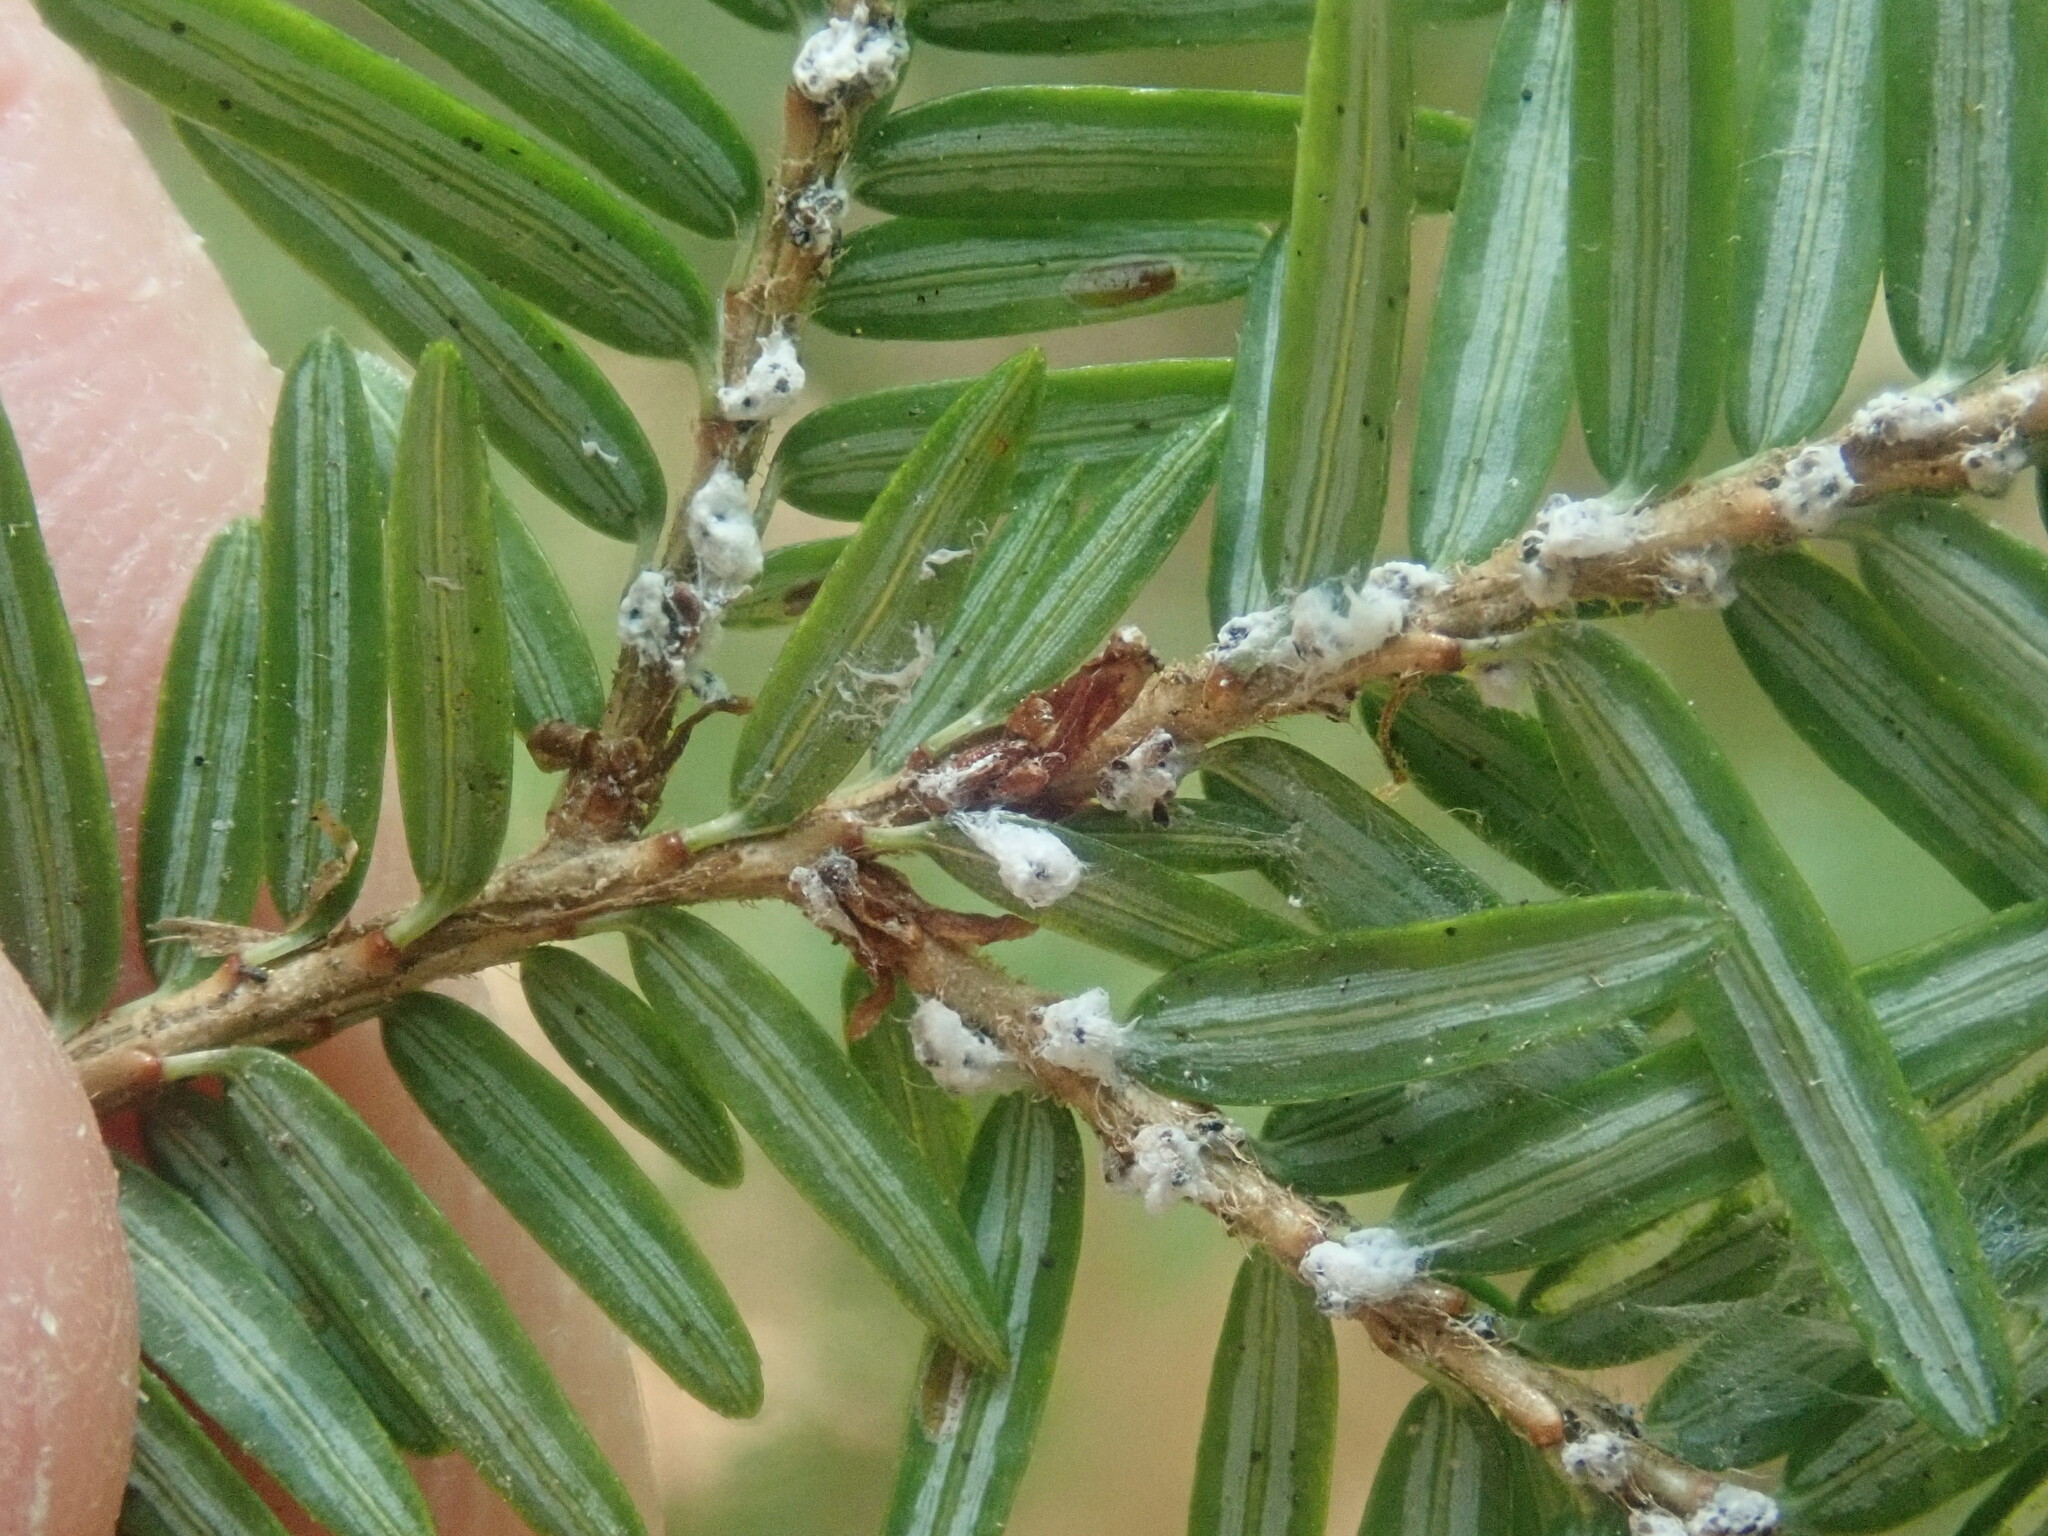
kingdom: Animalia
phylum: Arthropoda
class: Insecta
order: Hemiptera
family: Adelgidae
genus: Adelges
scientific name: Adelges tsugae
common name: Hemlock woolly adelgid
